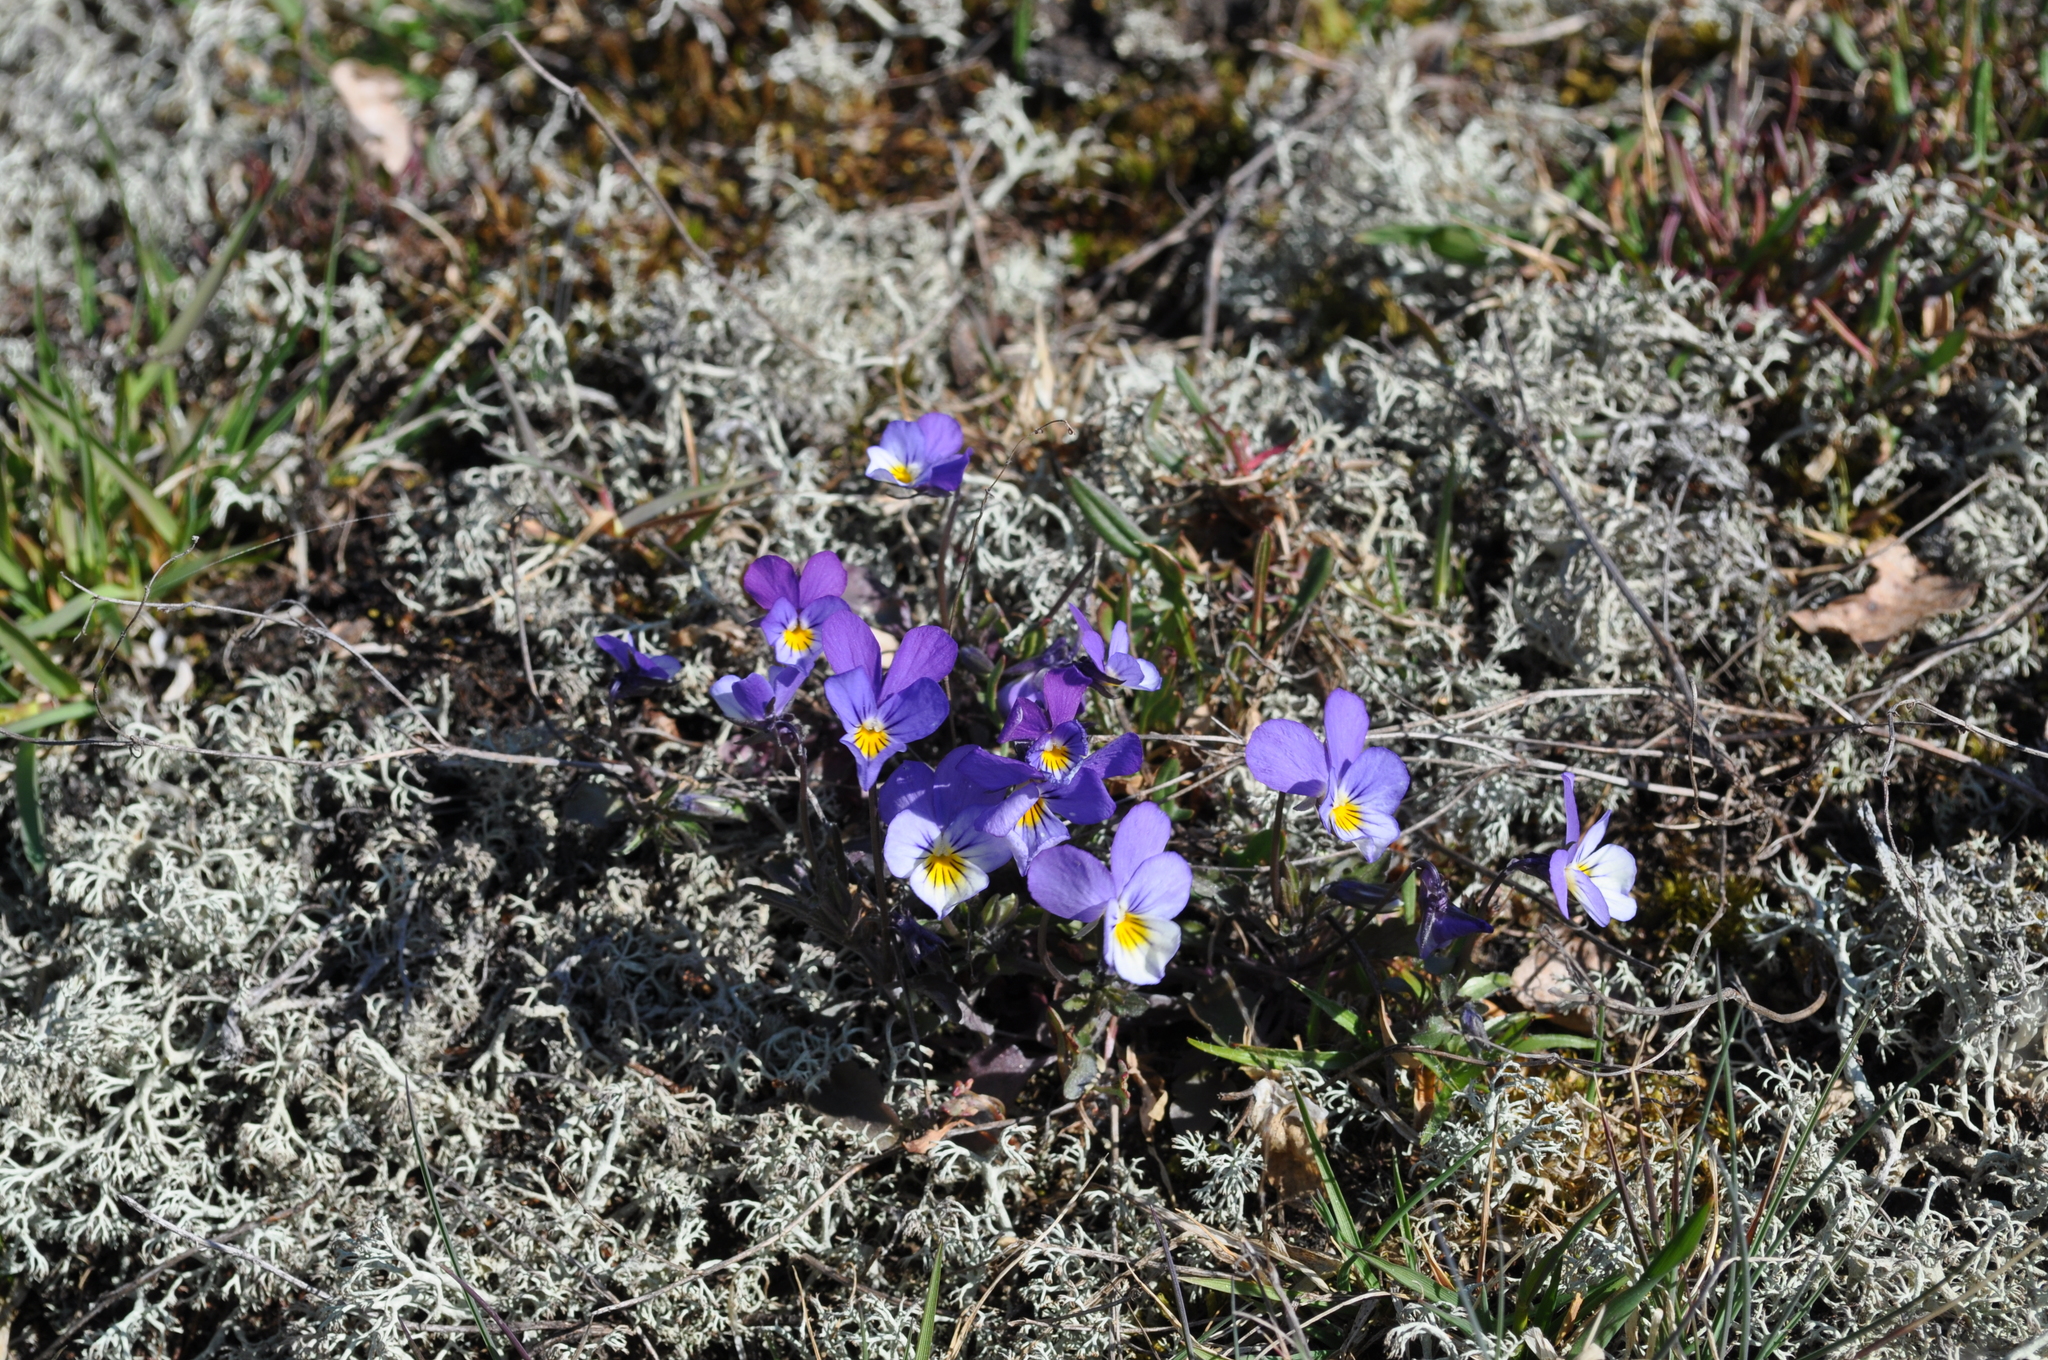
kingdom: Plantae
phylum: Tracheophyta
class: Magnoliopsida
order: Malpighiales
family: Violaceae
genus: Viola
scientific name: Viola tricolor
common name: Pansy
